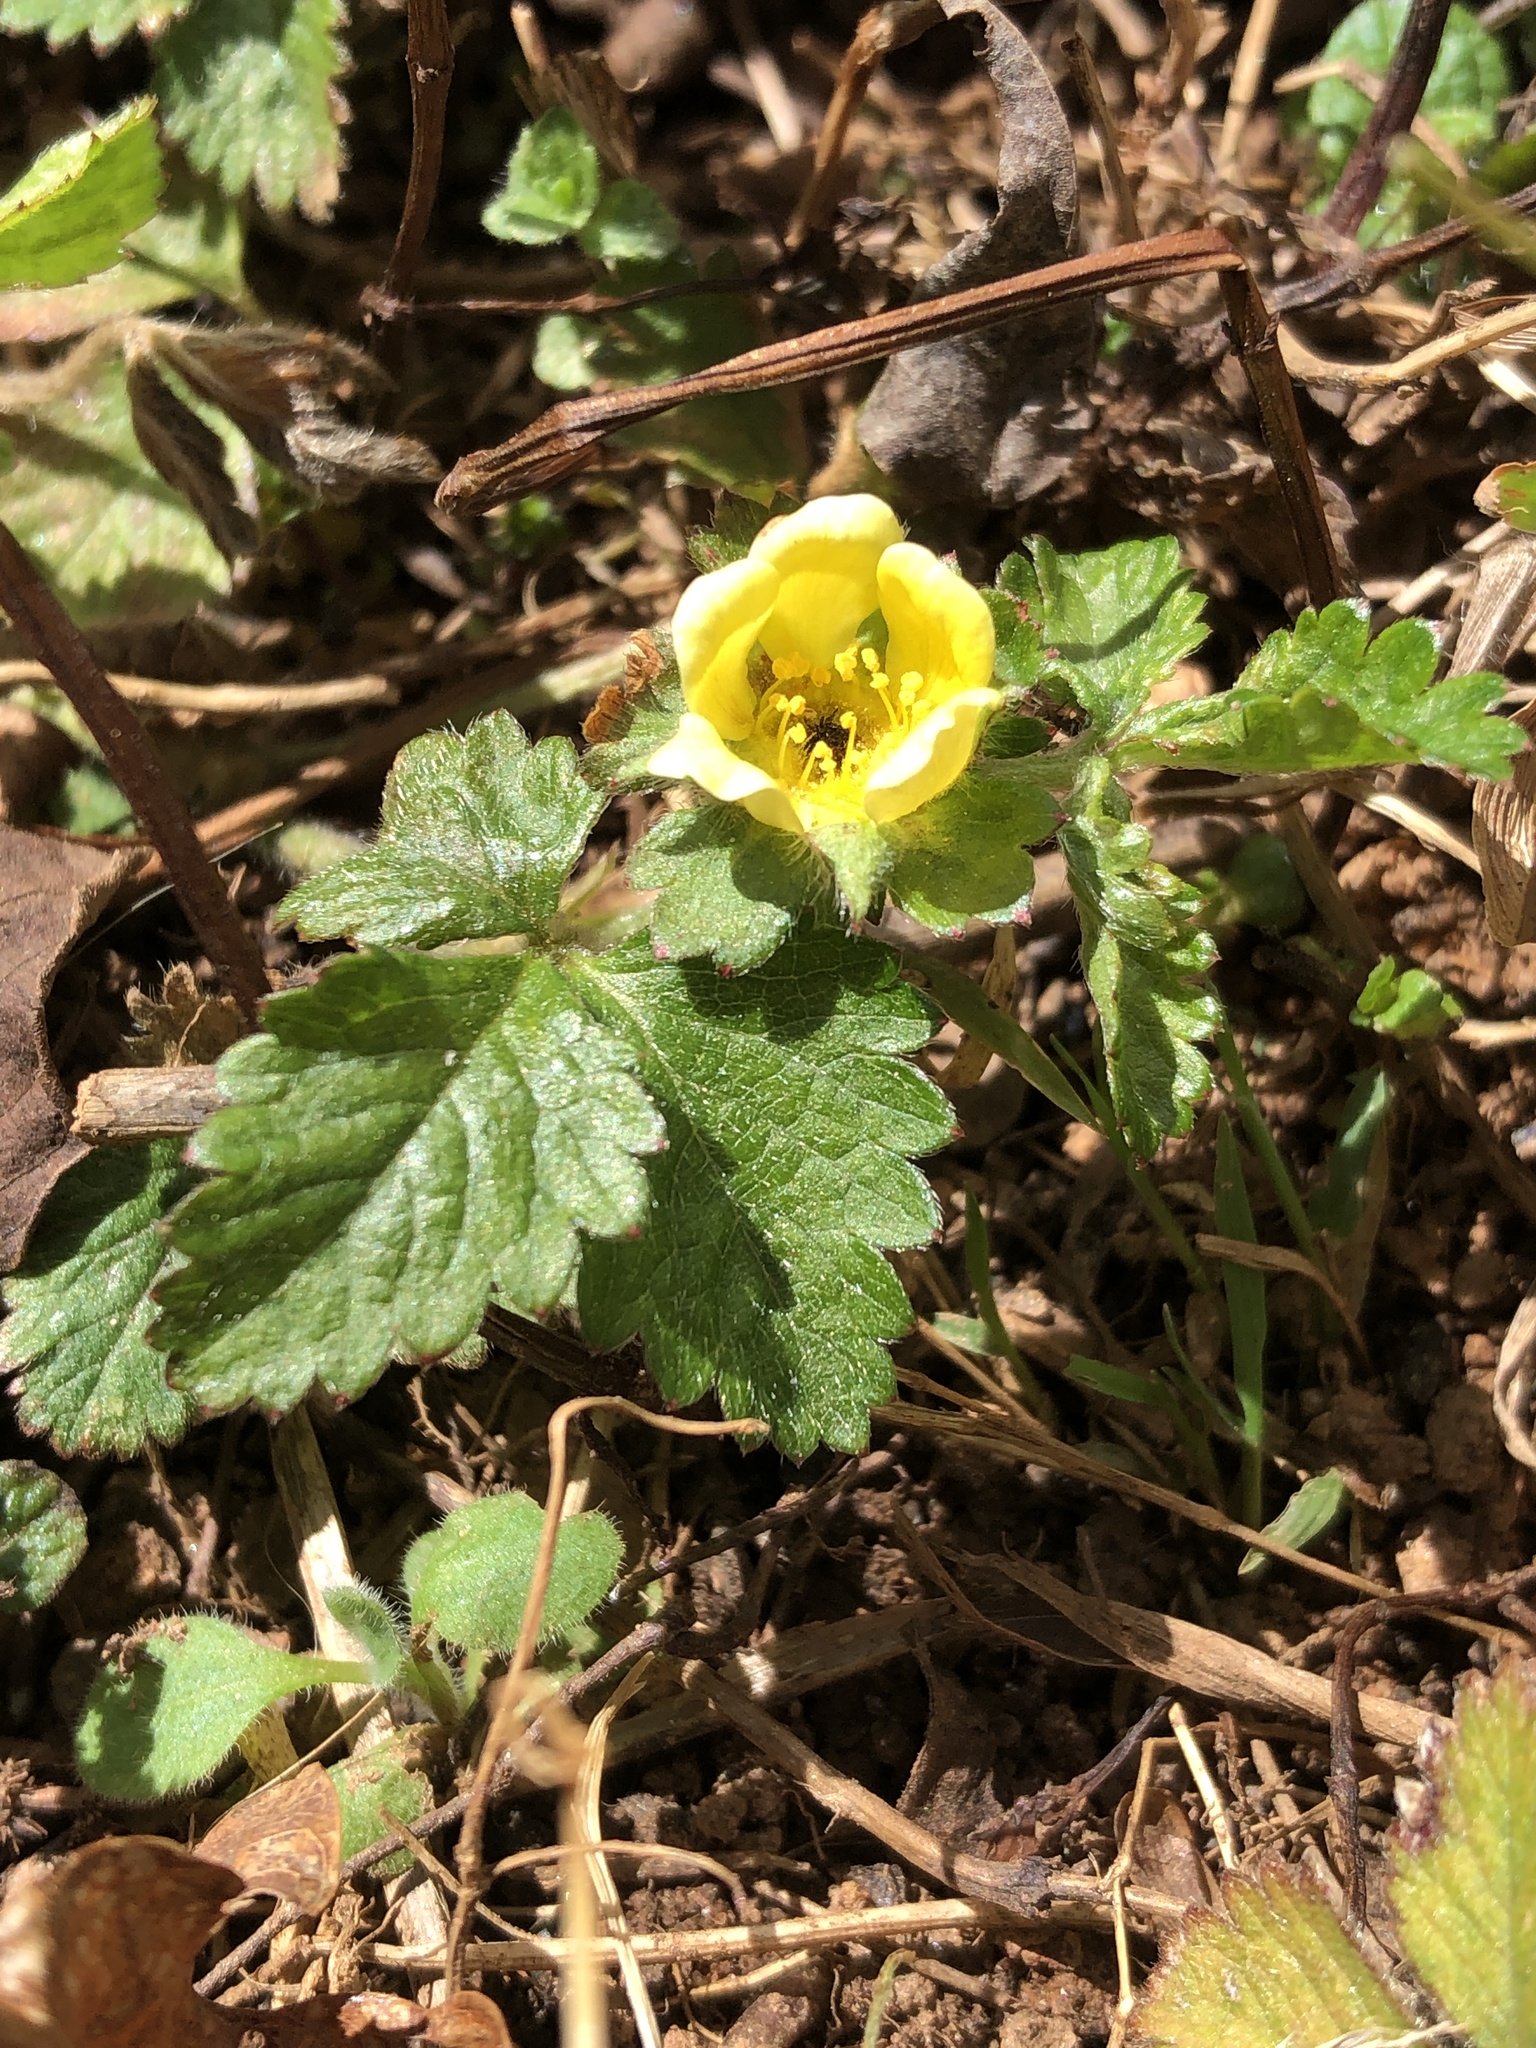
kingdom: Plantae
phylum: Tracheophyta
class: Magnoliopsida
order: Rosales
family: Rosaceae
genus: Potentilla
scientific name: Potentilla indica
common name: Yellow-flowered strawberry
